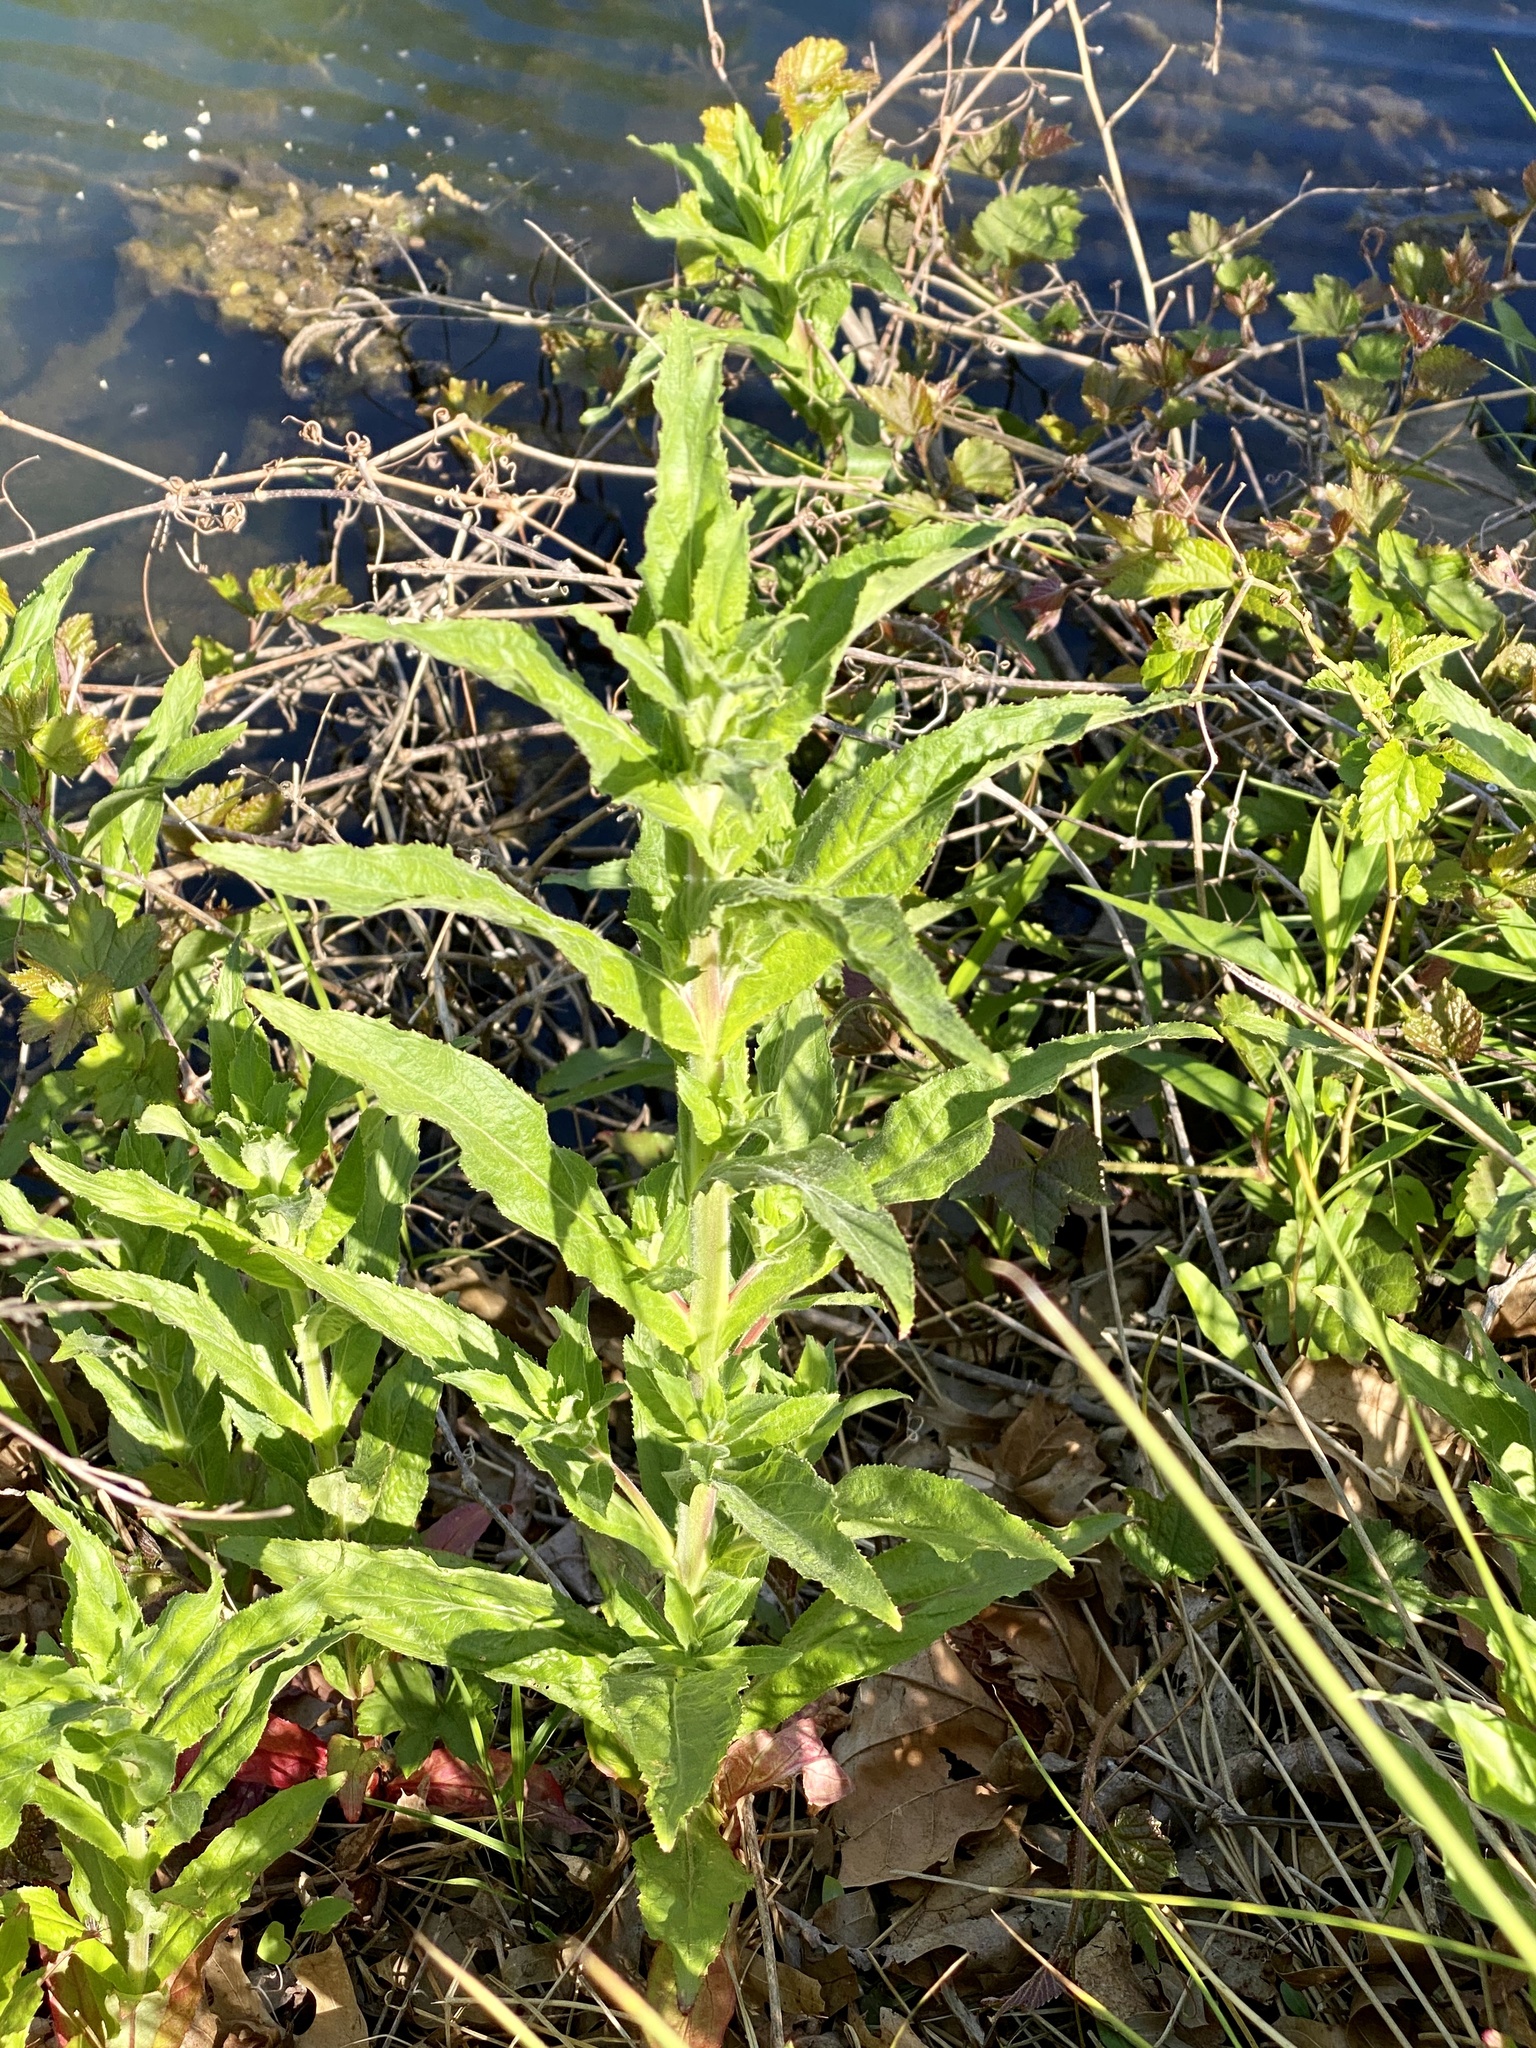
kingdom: Plantae
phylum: Tracheophyta
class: Magnoliopsida
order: Myrtales
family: Onagraceae
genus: Epilobium
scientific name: Epilobium hirsutum
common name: Great willowherb
